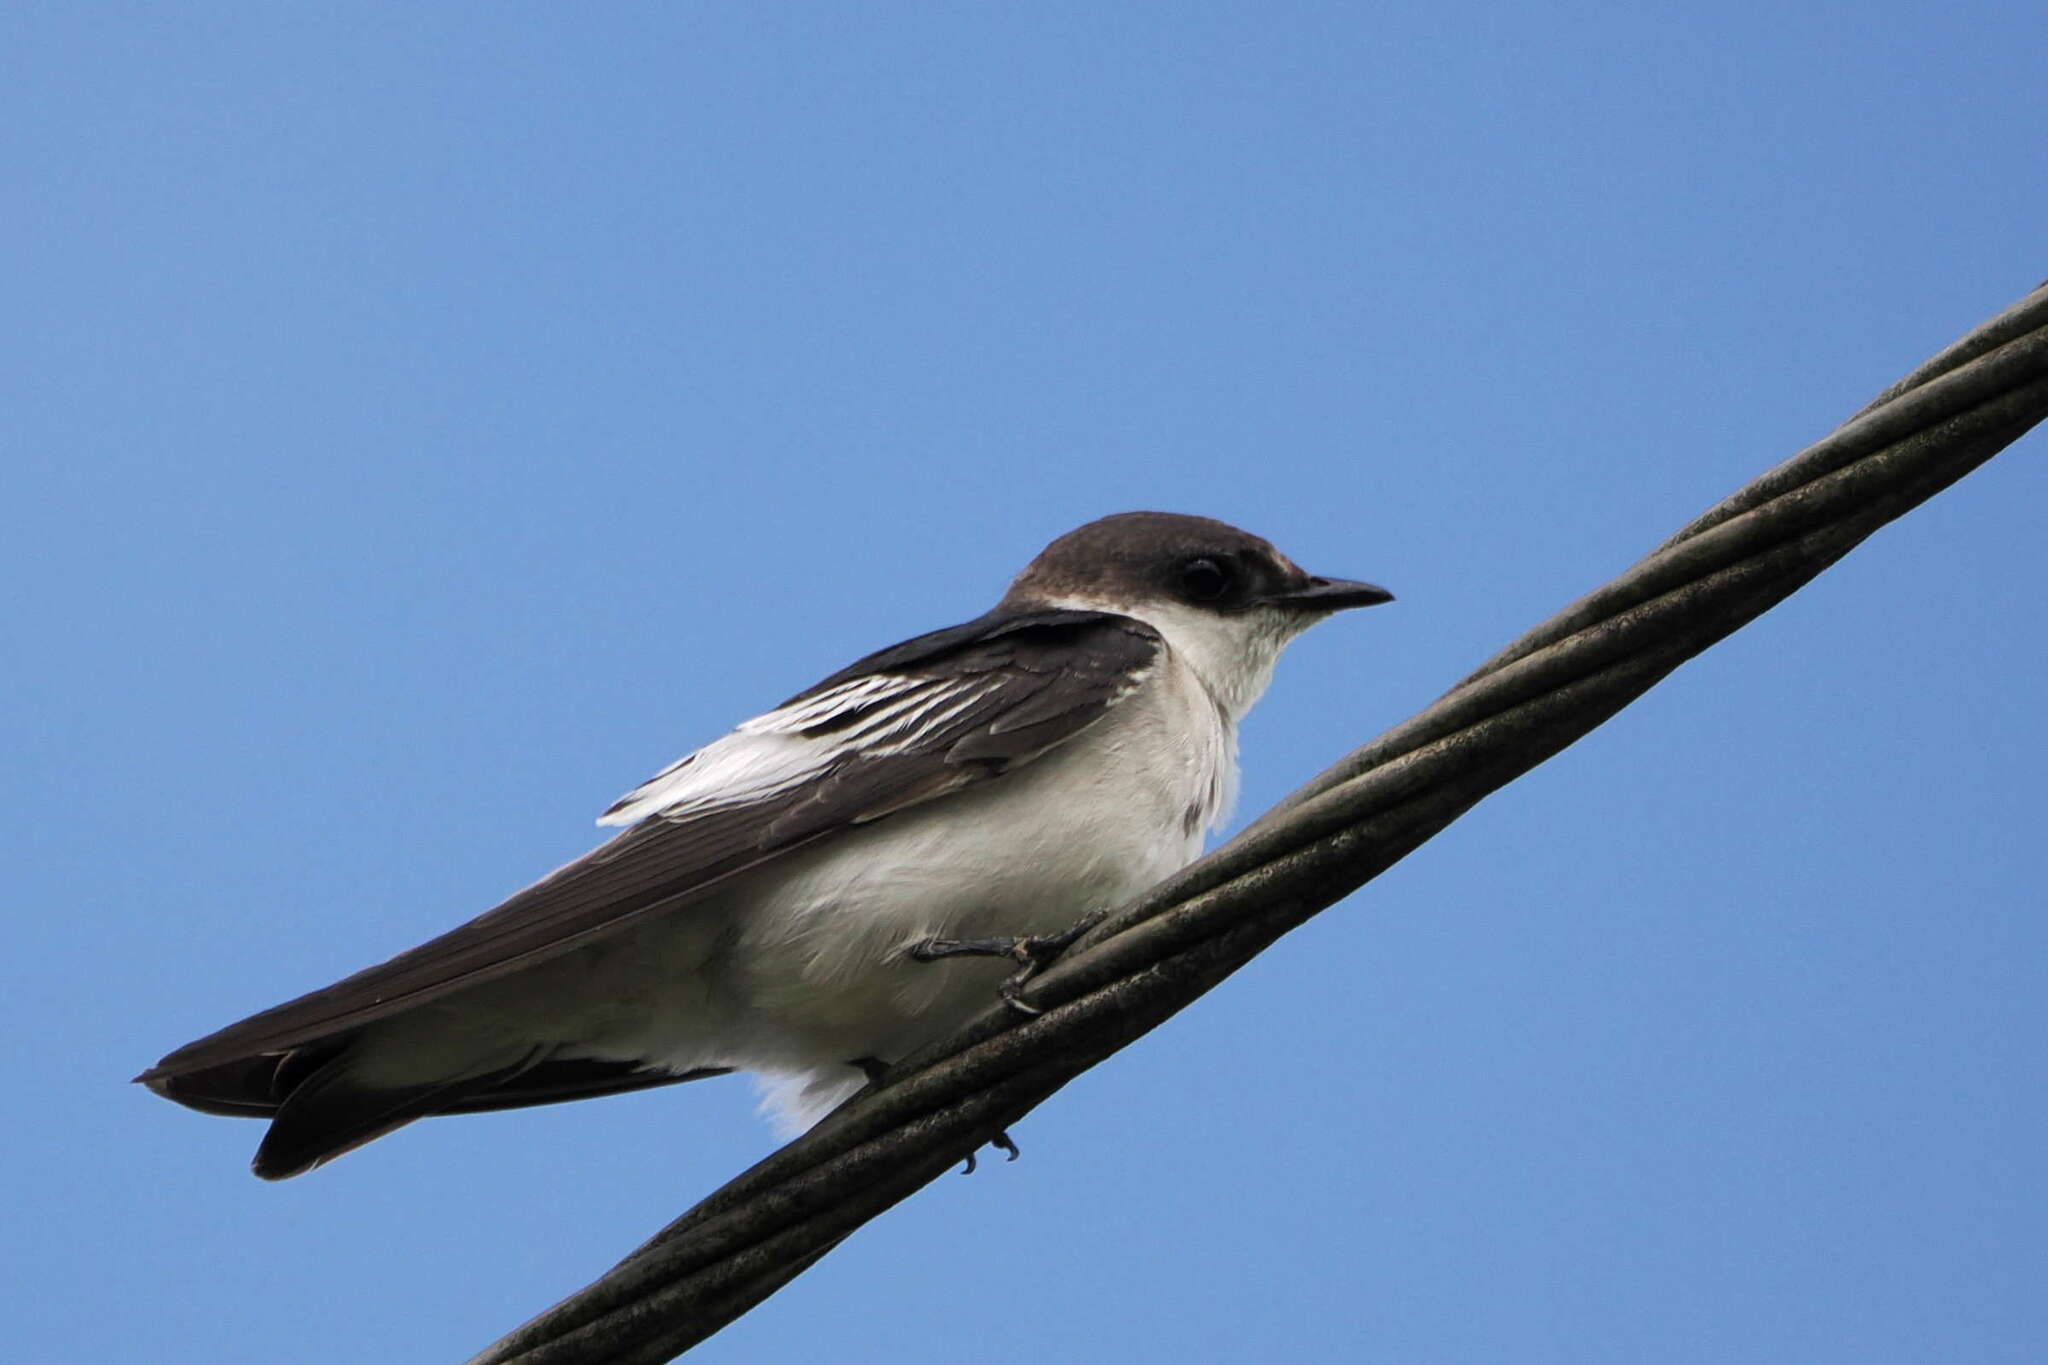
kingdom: Animalia
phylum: Chordata
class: Aves
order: Passeriformes
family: Hirundinidae
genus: Tachycineta
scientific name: Tachycineta albiventer
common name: White-winged swallow
